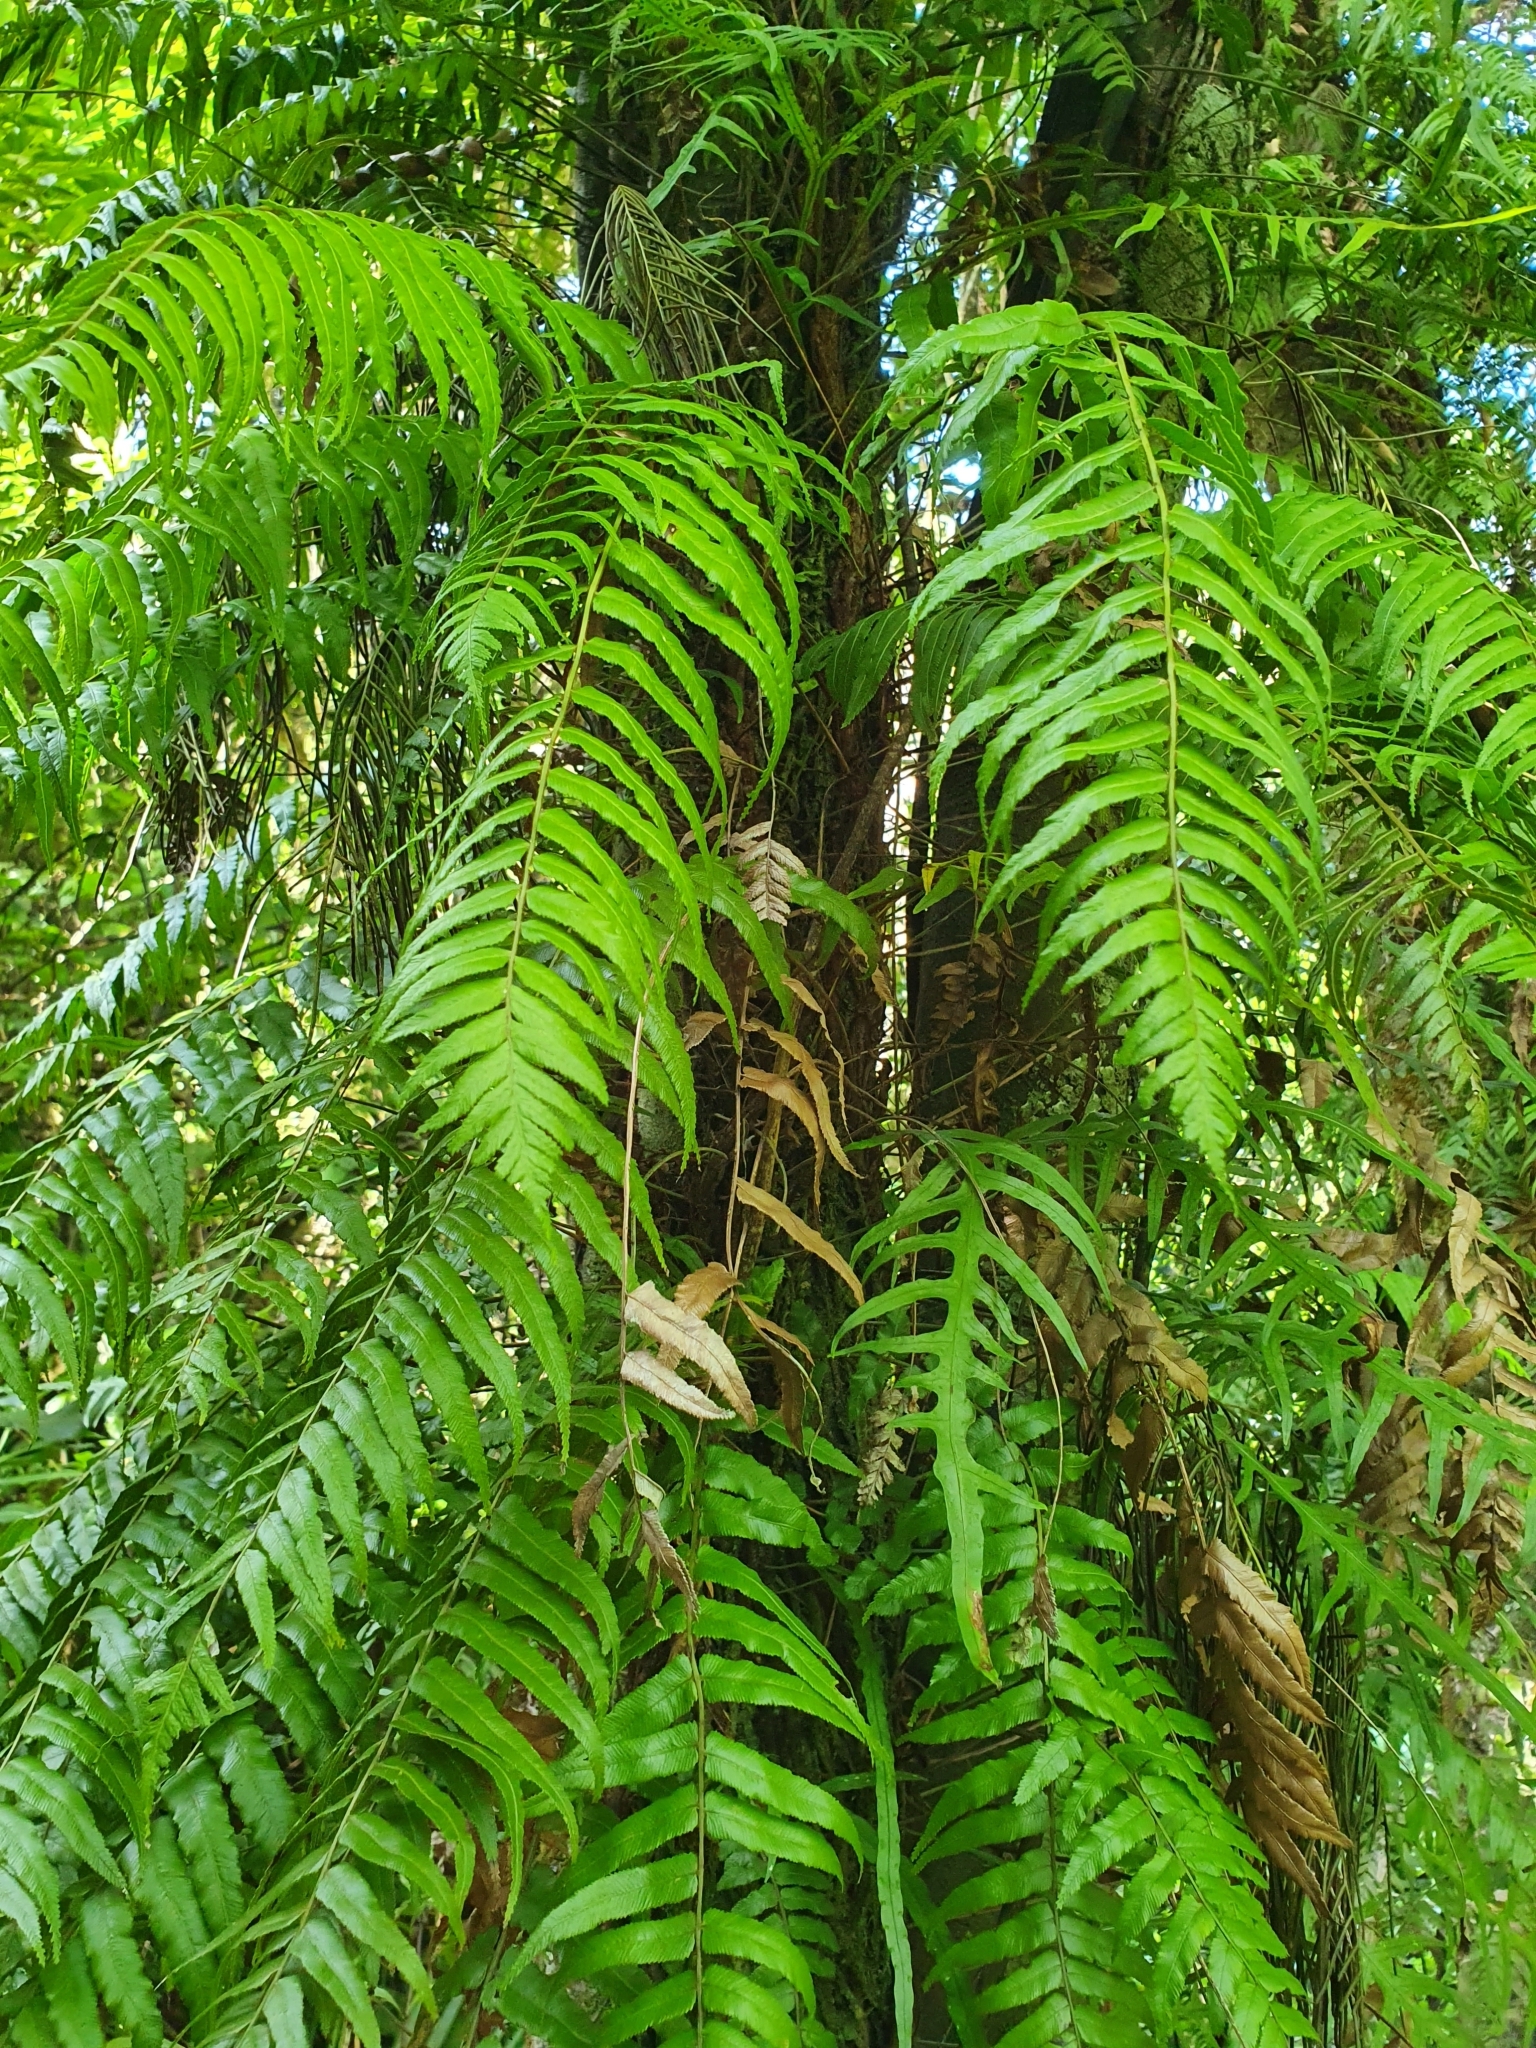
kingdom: Plantae
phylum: Tracheophyta
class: Polypodiopsida
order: Polypodiales
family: Blechnaceae
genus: Icarus
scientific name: Icarus filiformis
